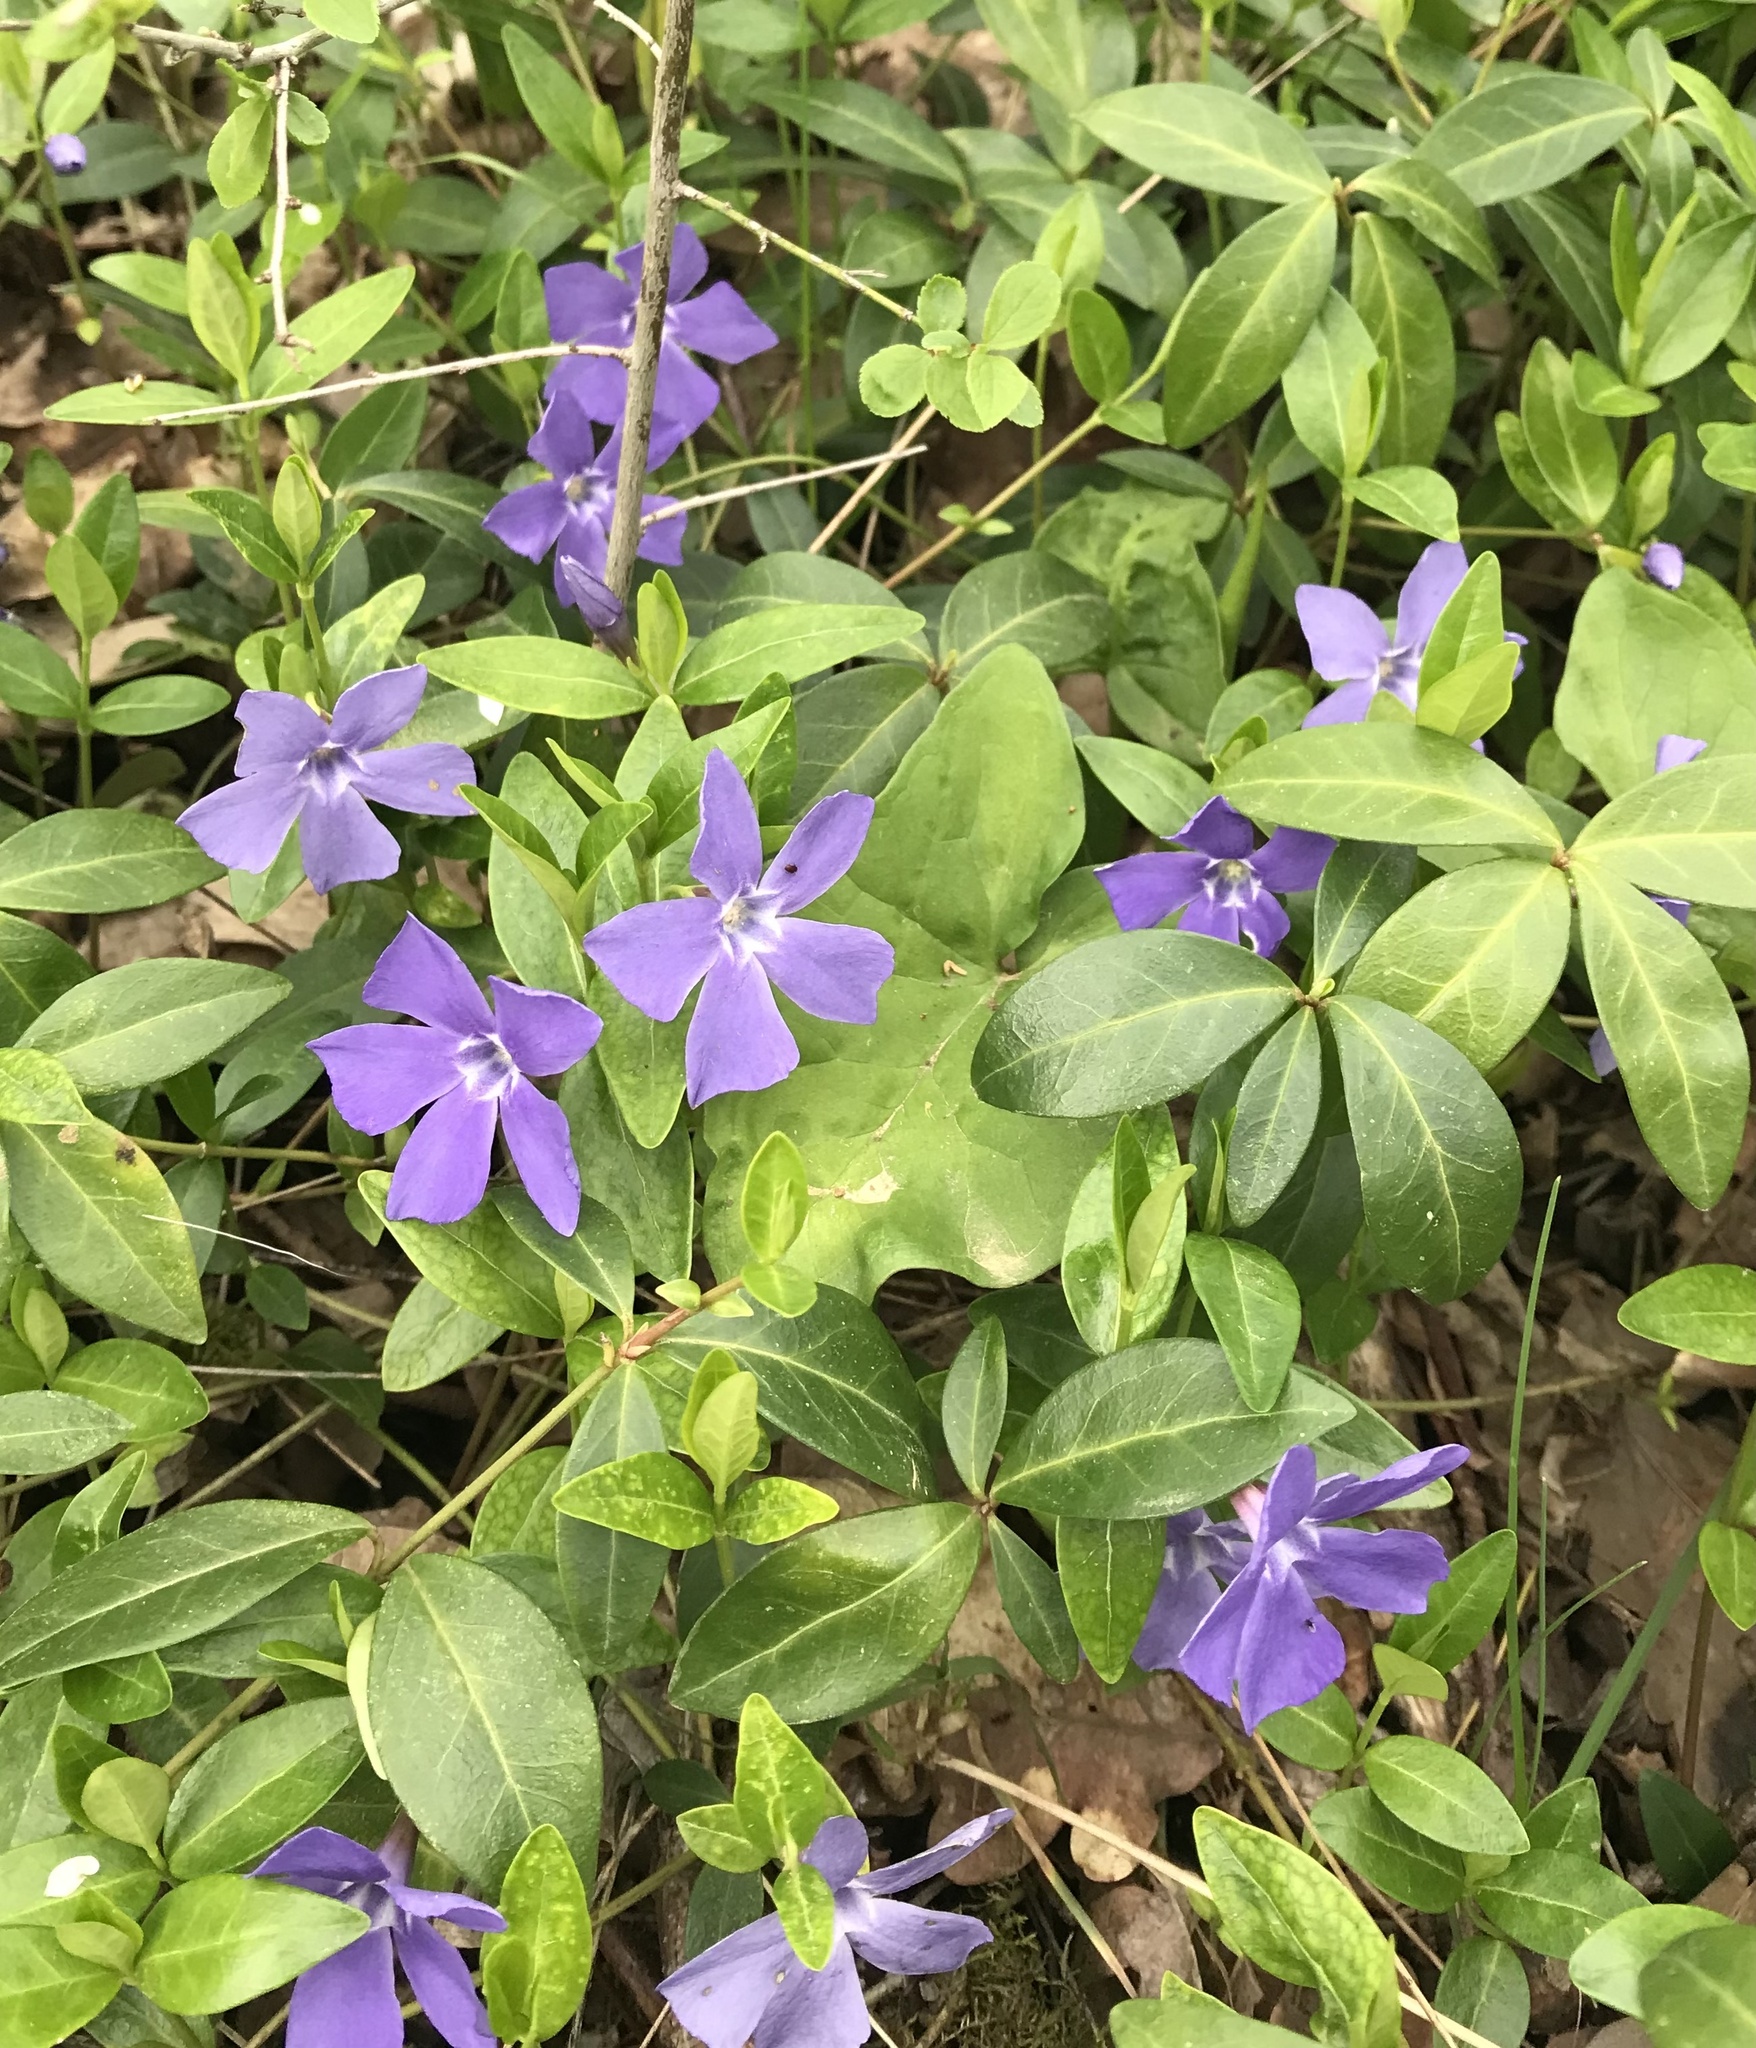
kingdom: Plantae
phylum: Tracheophyta
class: Magnoliopsida
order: Gentianales
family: Apocynaceae
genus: Vinca
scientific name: Vinca minor
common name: Lesser periwinkle
